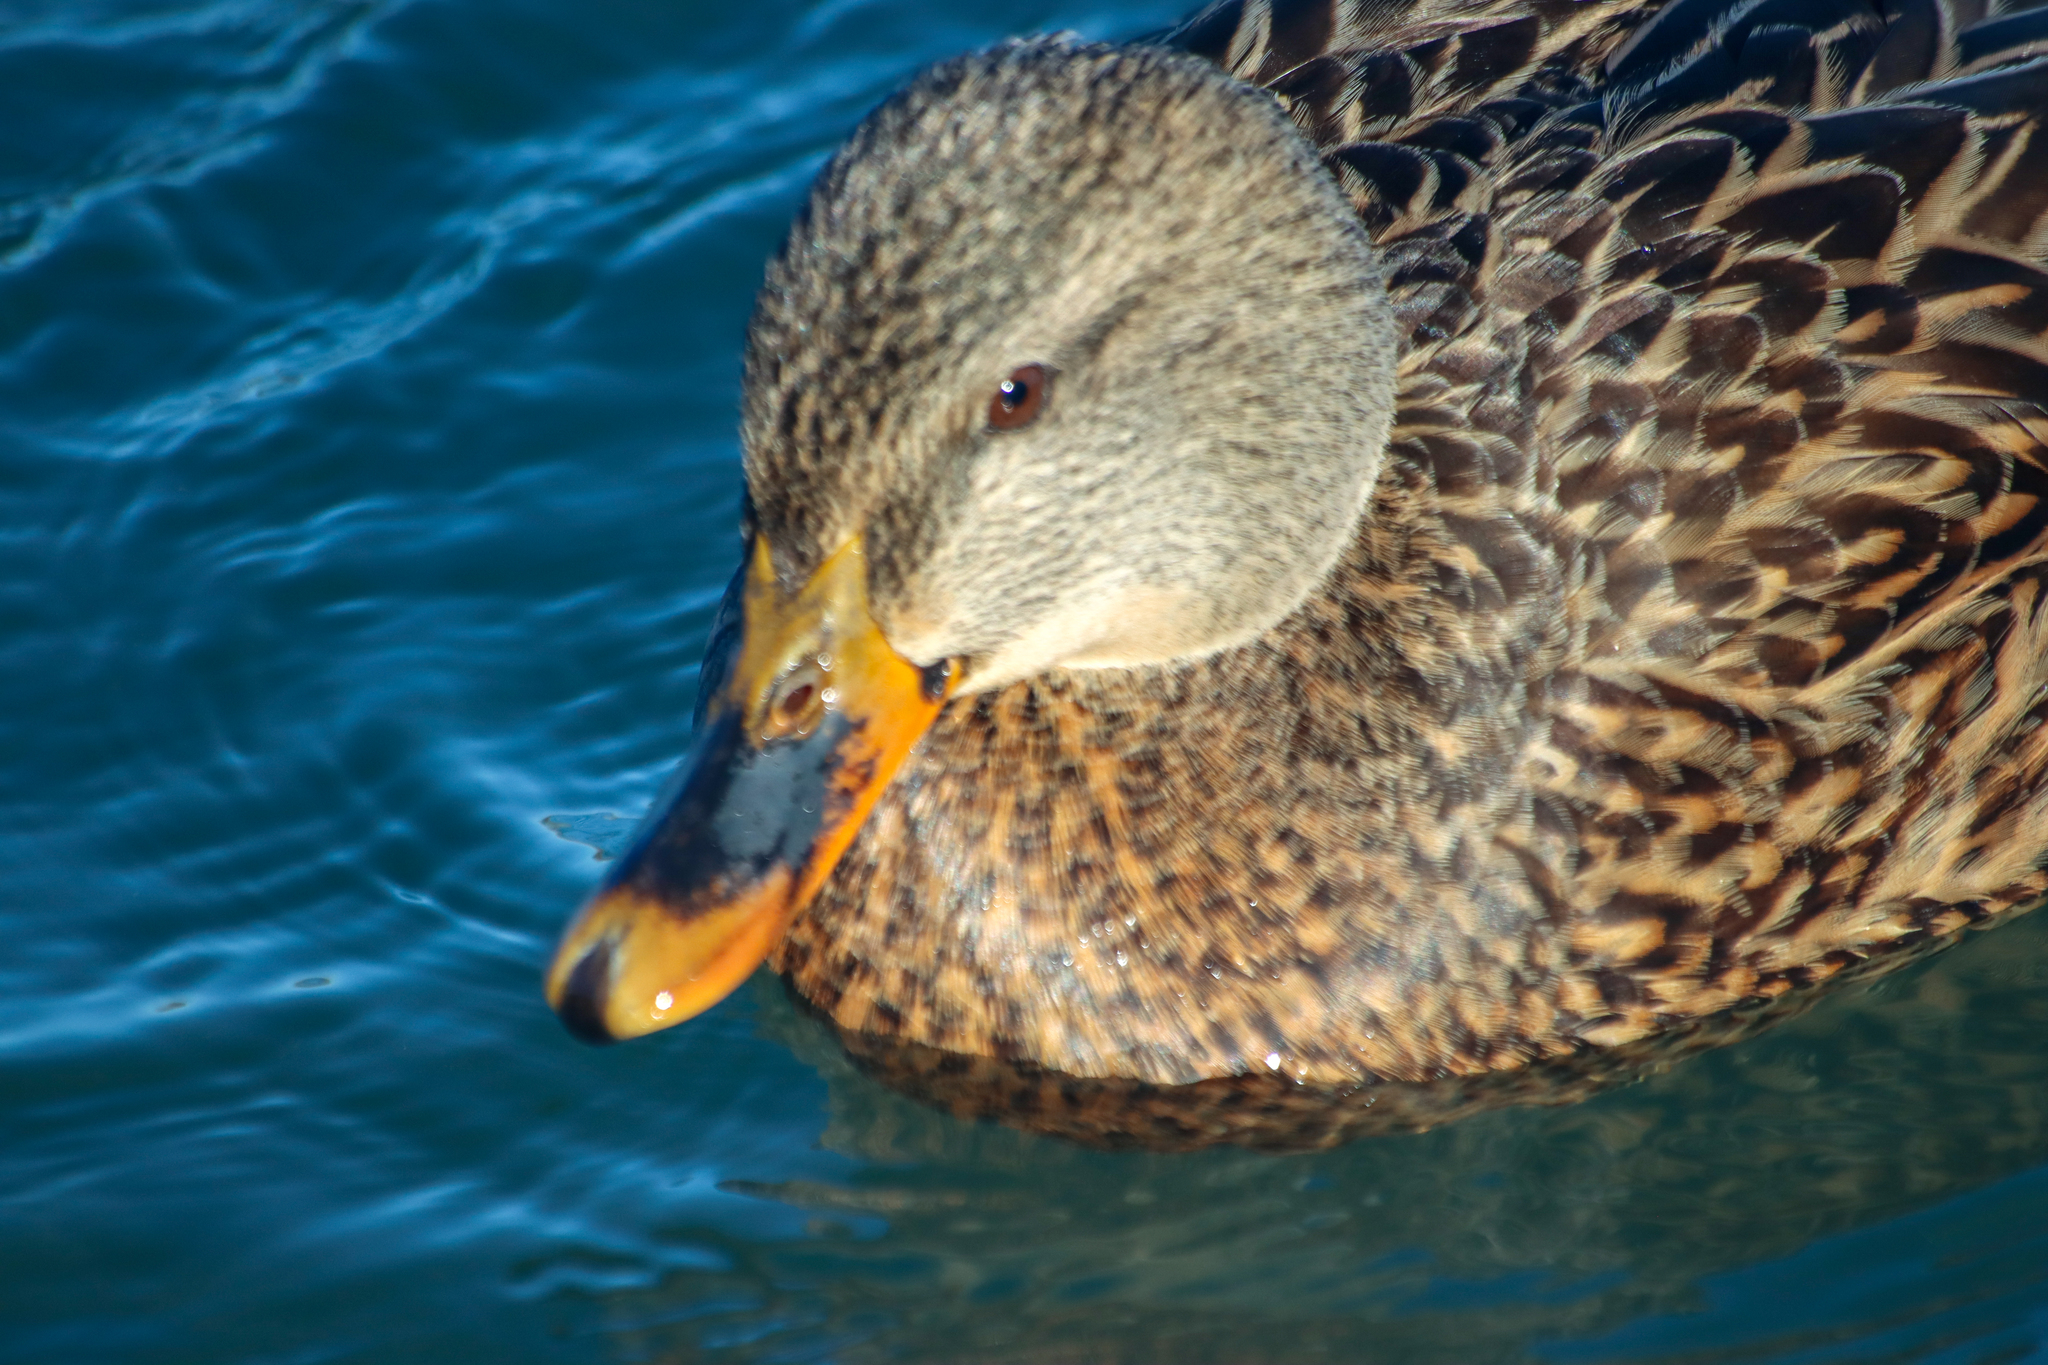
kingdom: Animalia
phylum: Chordata
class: Aves
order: Anseriformes
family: Anatidae
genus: Anas
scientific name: Anas platyrhynchos
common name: Mallard
